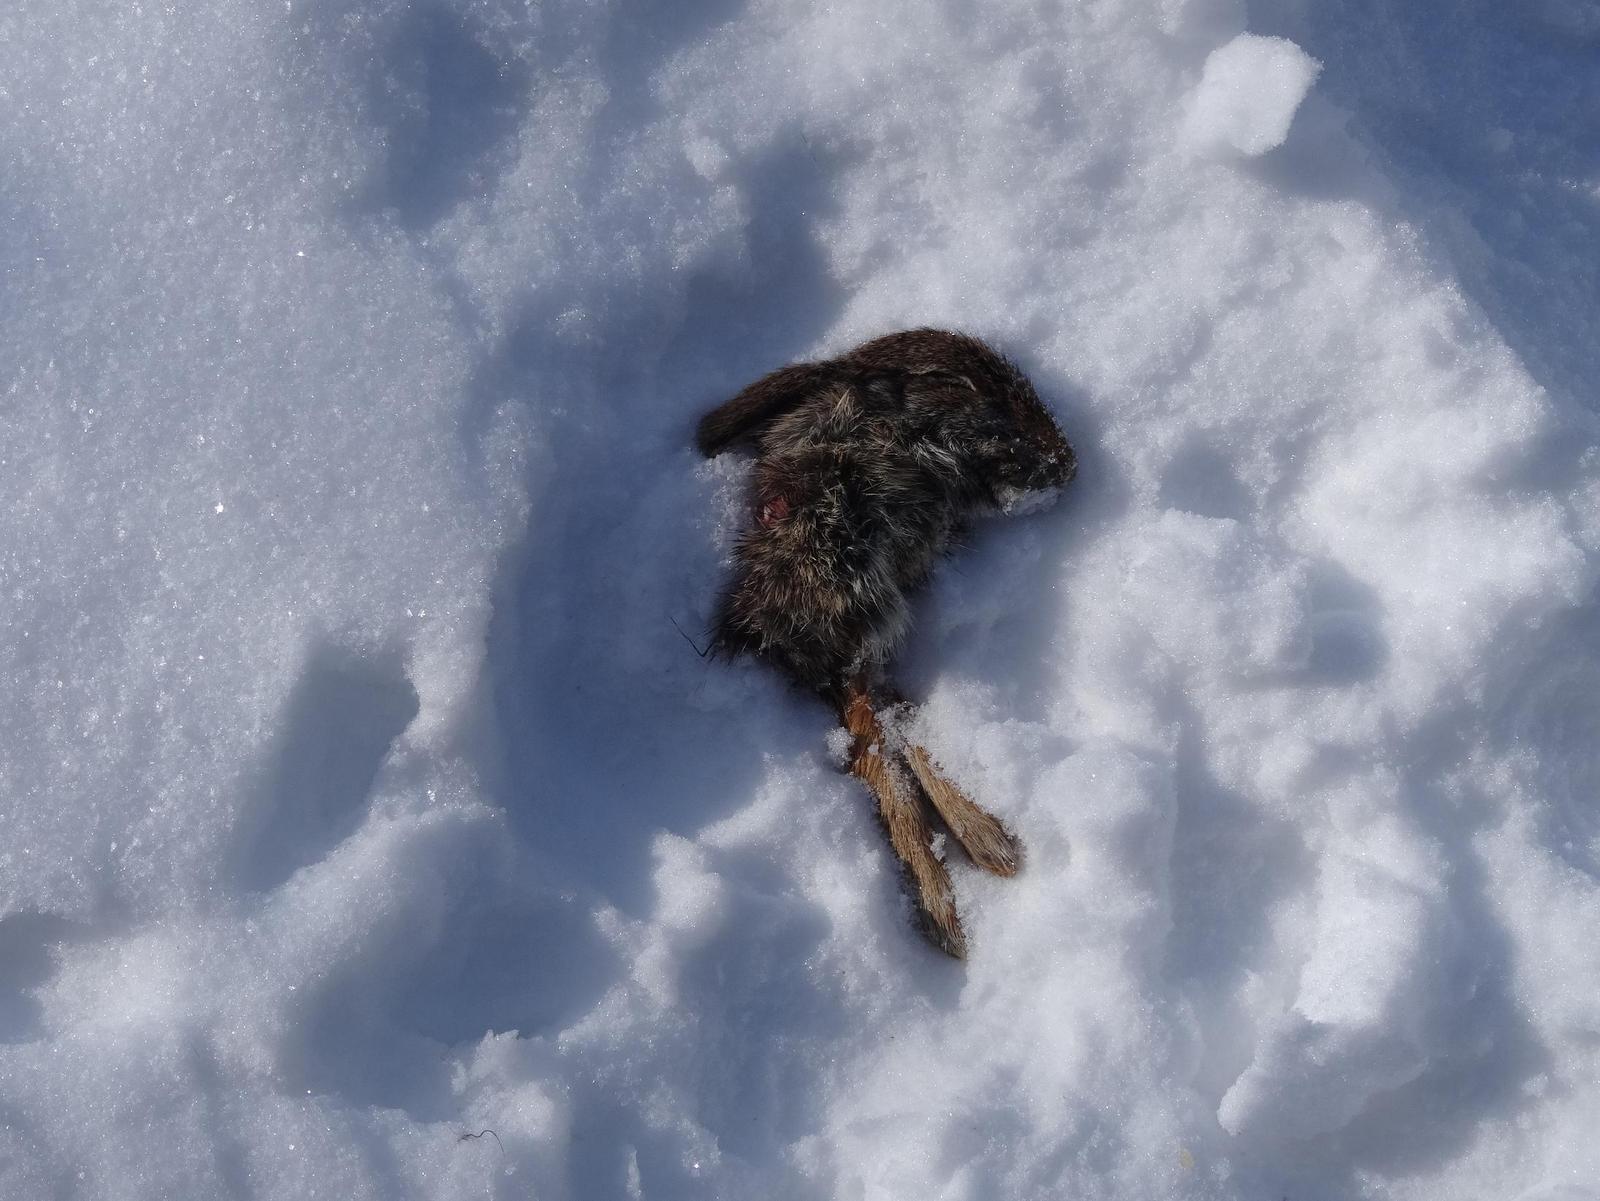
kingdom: Animalia
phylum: Chordata
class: Mammalia
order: Lagomorpha
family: Leporidae
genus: Sylvilagus
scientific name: Sylvilagus floridanus
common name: Eastern cottontail
